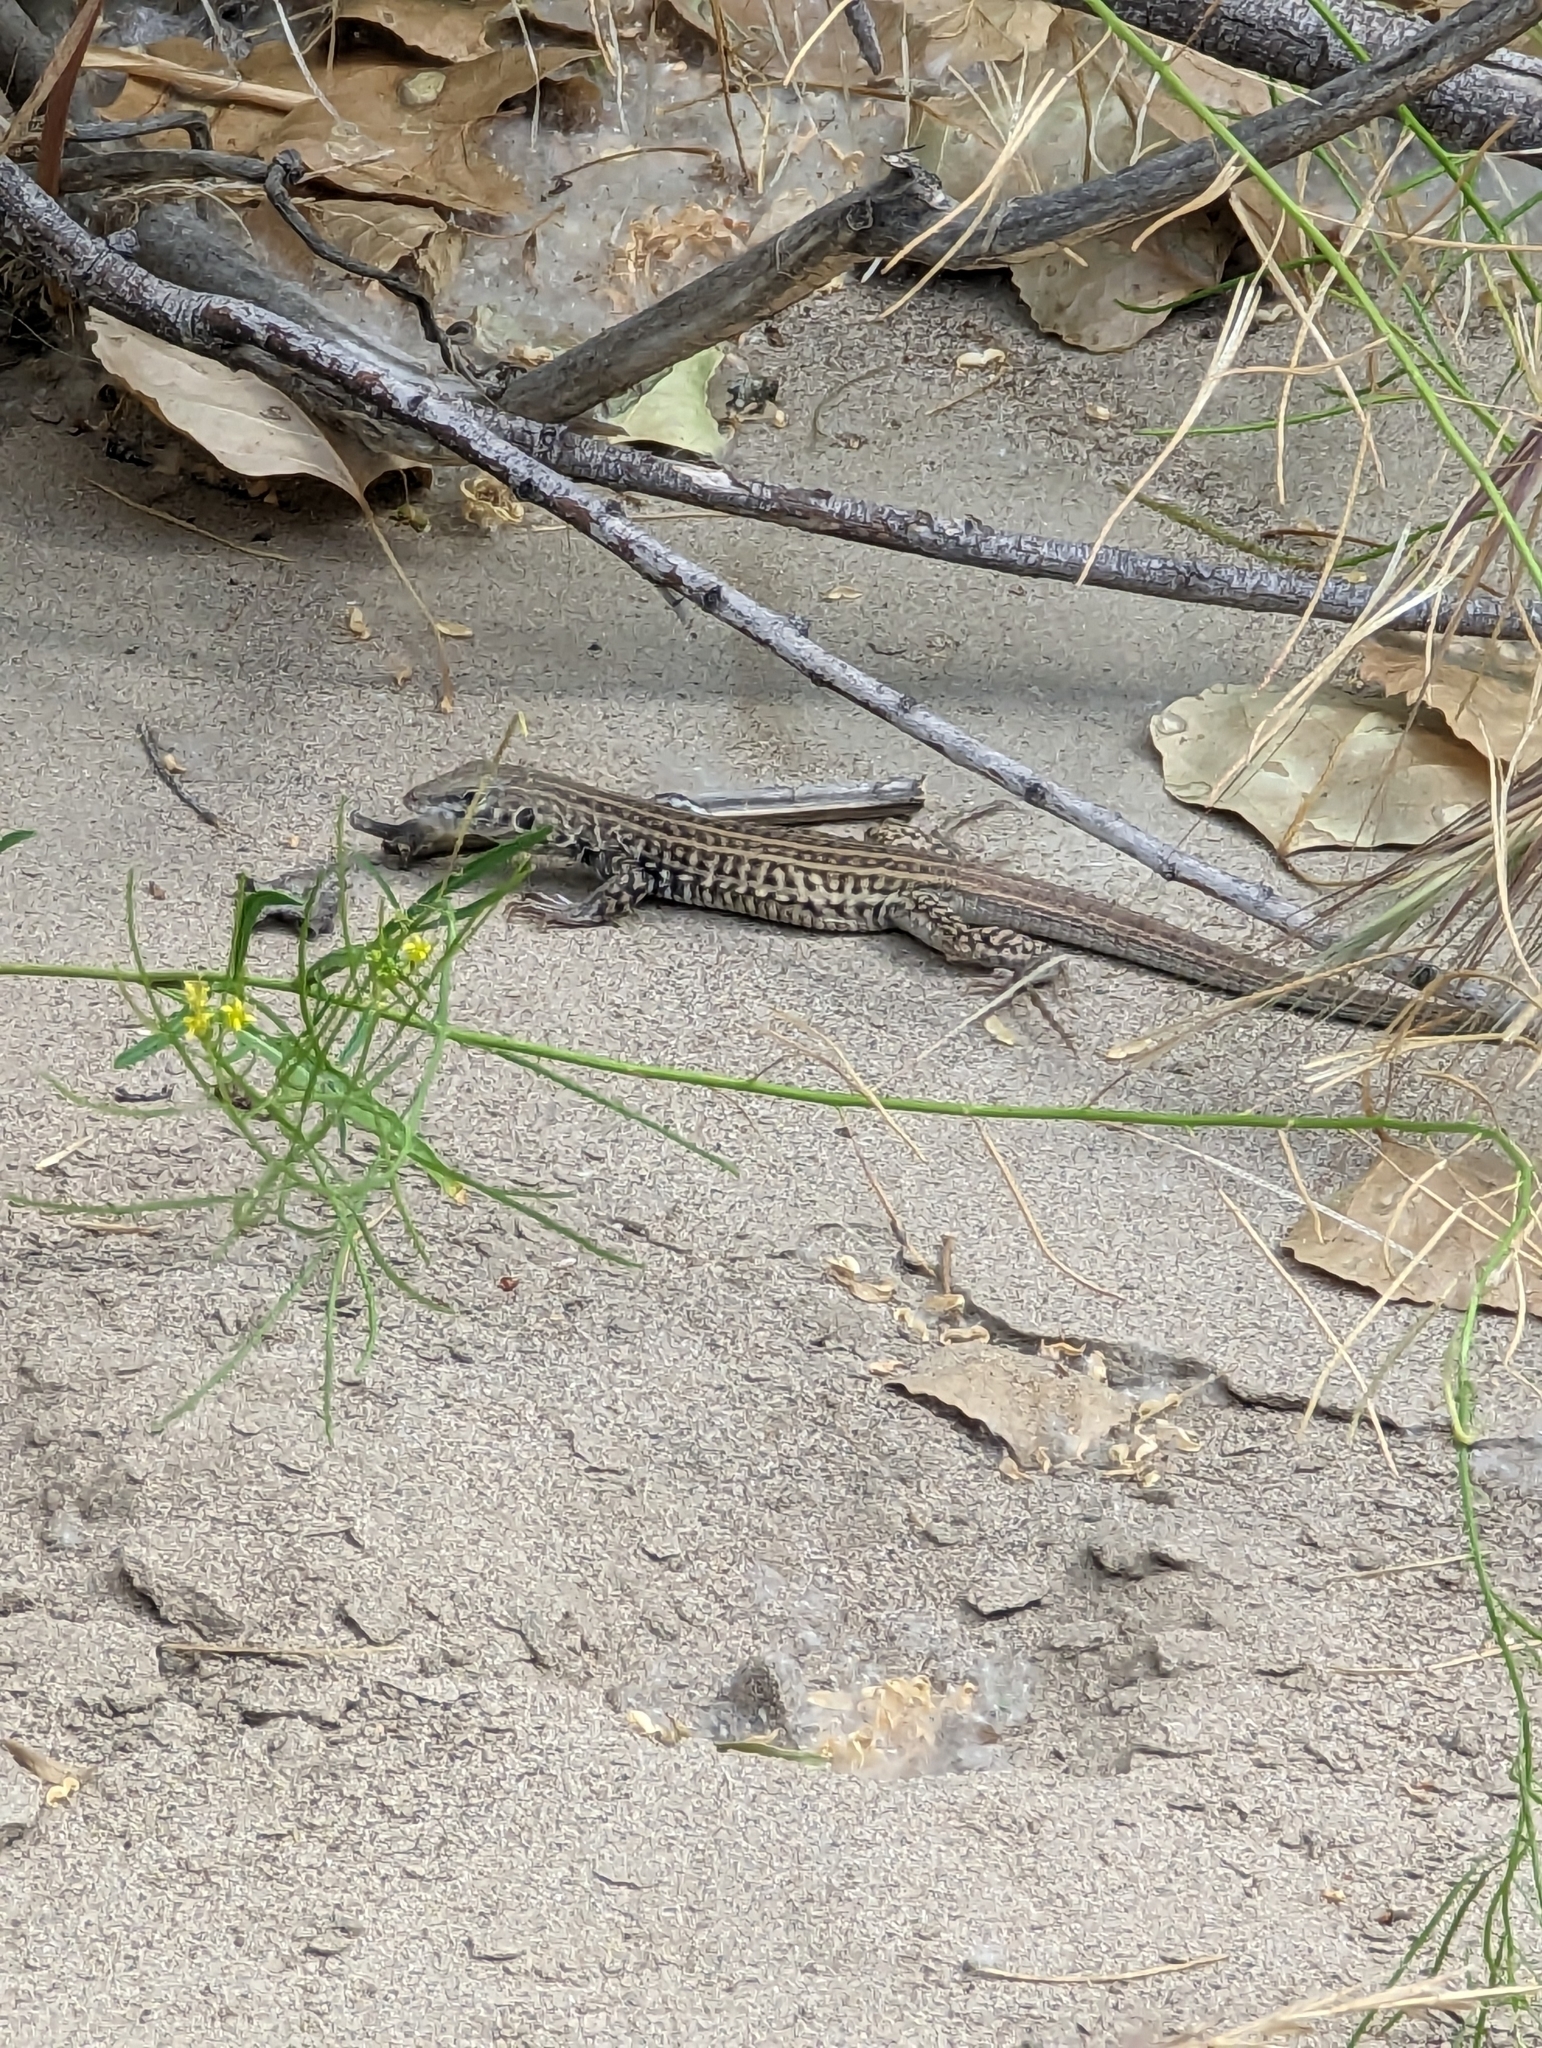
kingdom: Animalia
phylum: Chordata
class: Squamata
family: Teiidae
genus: Aspidoscelis
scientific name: Aspidoscelis tigris
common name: Tiger whiptail
